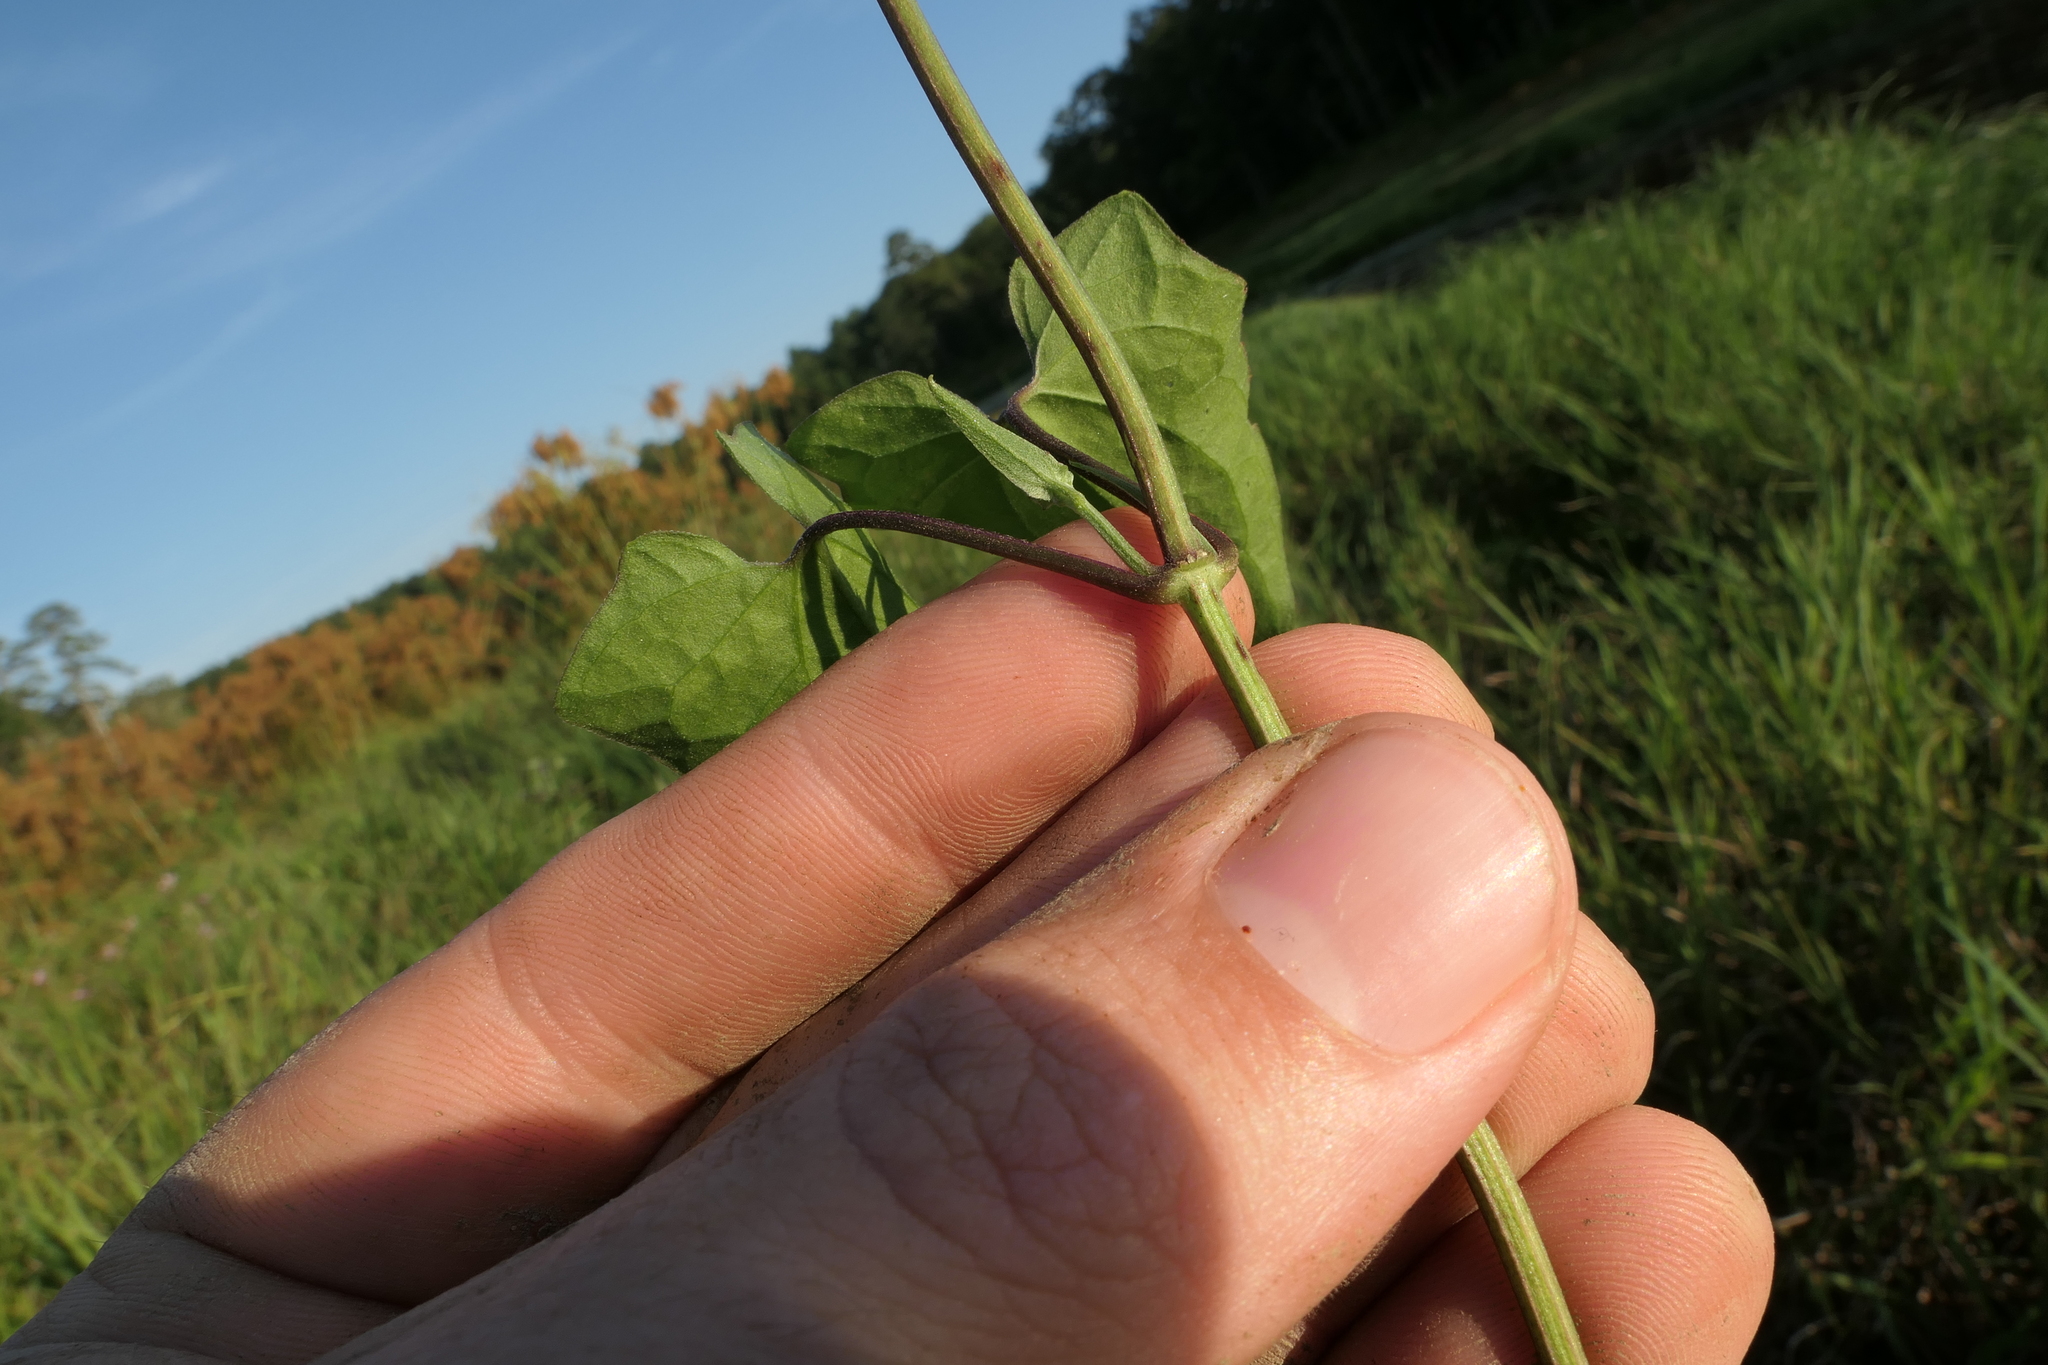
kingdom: Plantae
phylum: Tracheophyta
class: Magnoliopsida
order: Asterales
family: Asteraceae
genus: Mikania
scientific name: Mikania scandens
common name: Climbing hempvine
